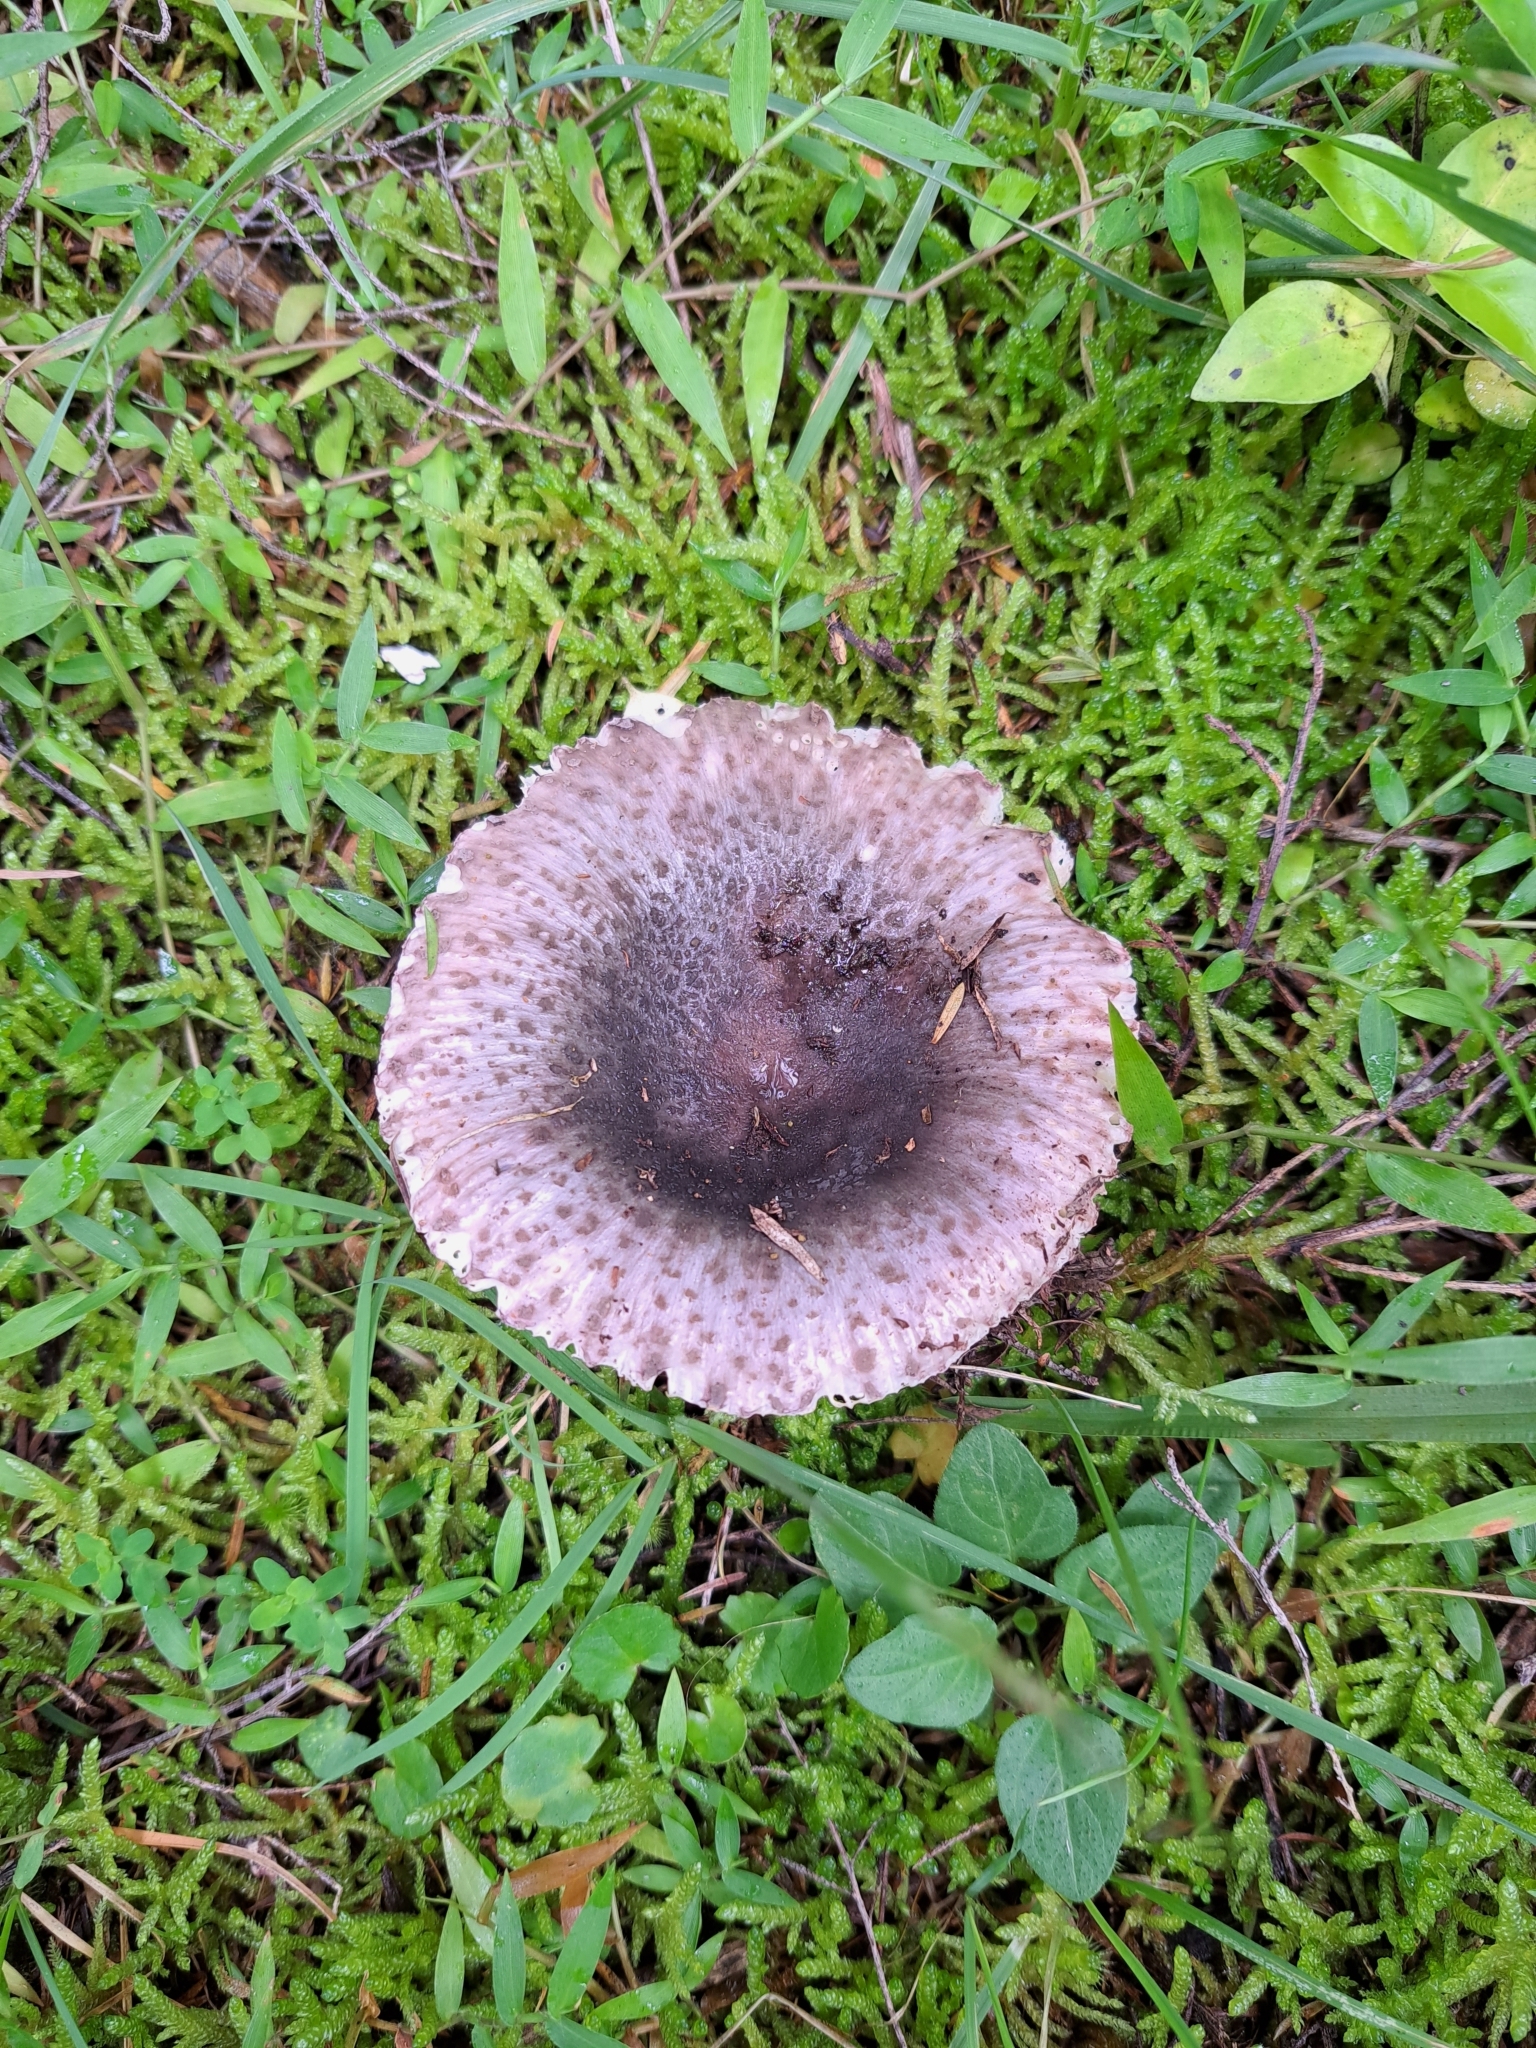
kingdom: Fungi
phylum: Basidiomycota
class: Agaricomycetes
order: Russulales
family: Russulaceae
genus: Russula
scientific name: Russula griseoviridis
